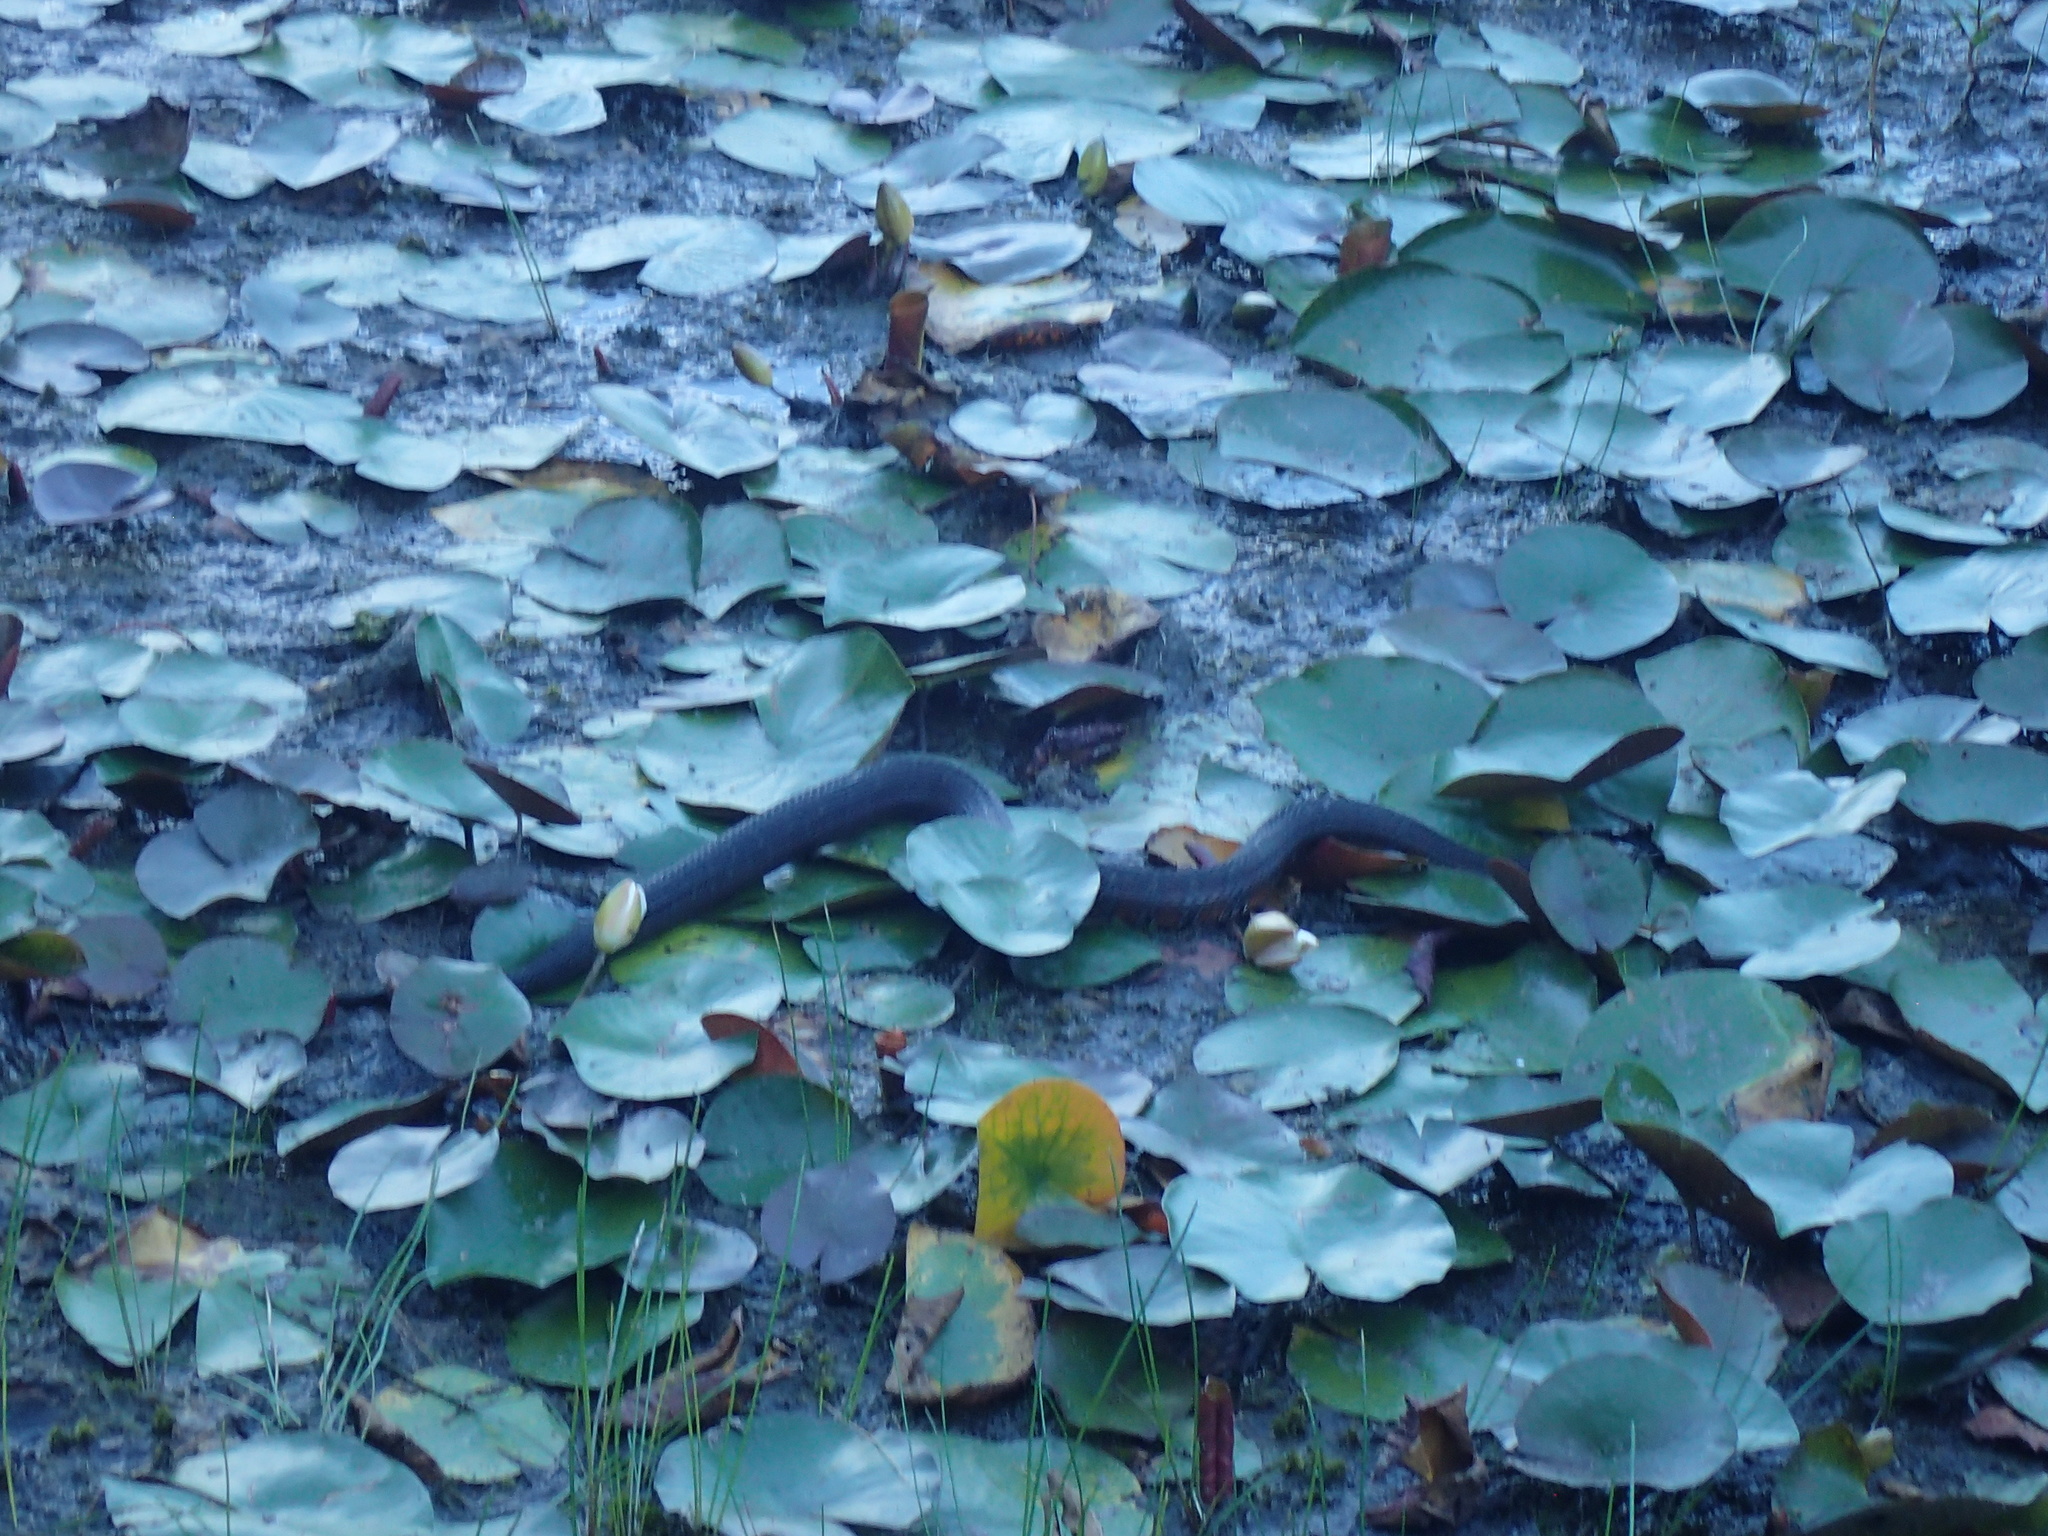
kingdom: Animalia
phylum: Chordata
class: Squamata
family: Colubridae
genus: Nerodia
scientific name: Nerodia sipedon
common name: Northern water snake
